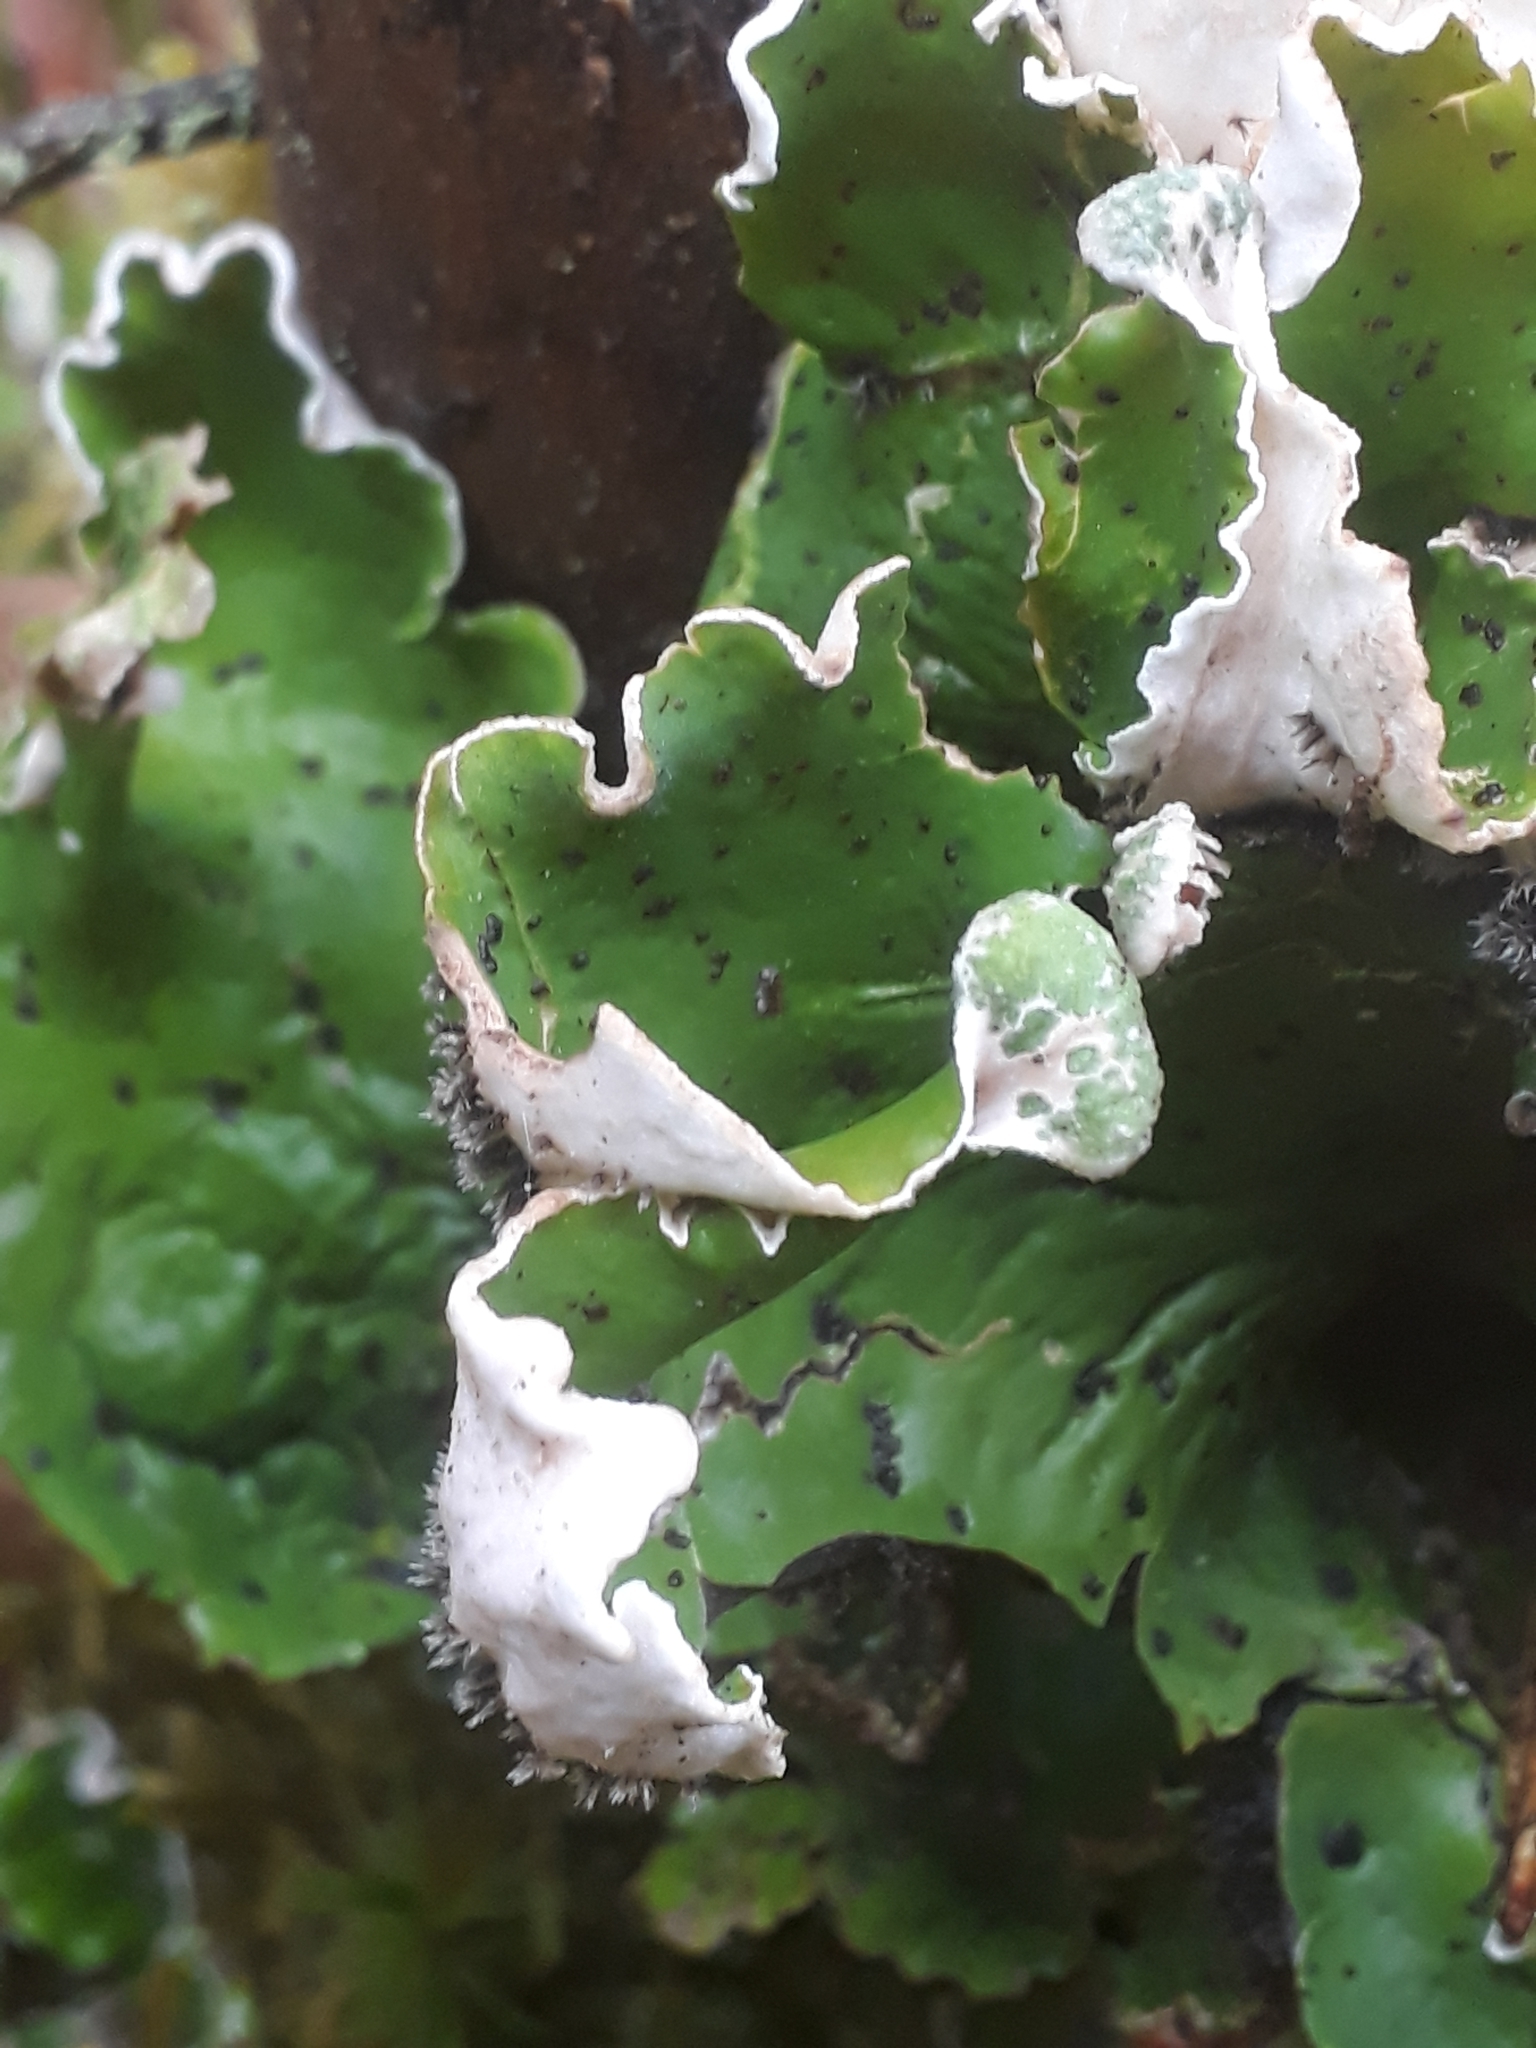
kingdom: Fungi
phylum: Ascomycota
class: Lecanoromycetes
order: Peltigerales
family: Peltigeraceae
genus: Peltigera
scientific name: Peltigera aphthosa
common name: Common freckle pelt lichen
